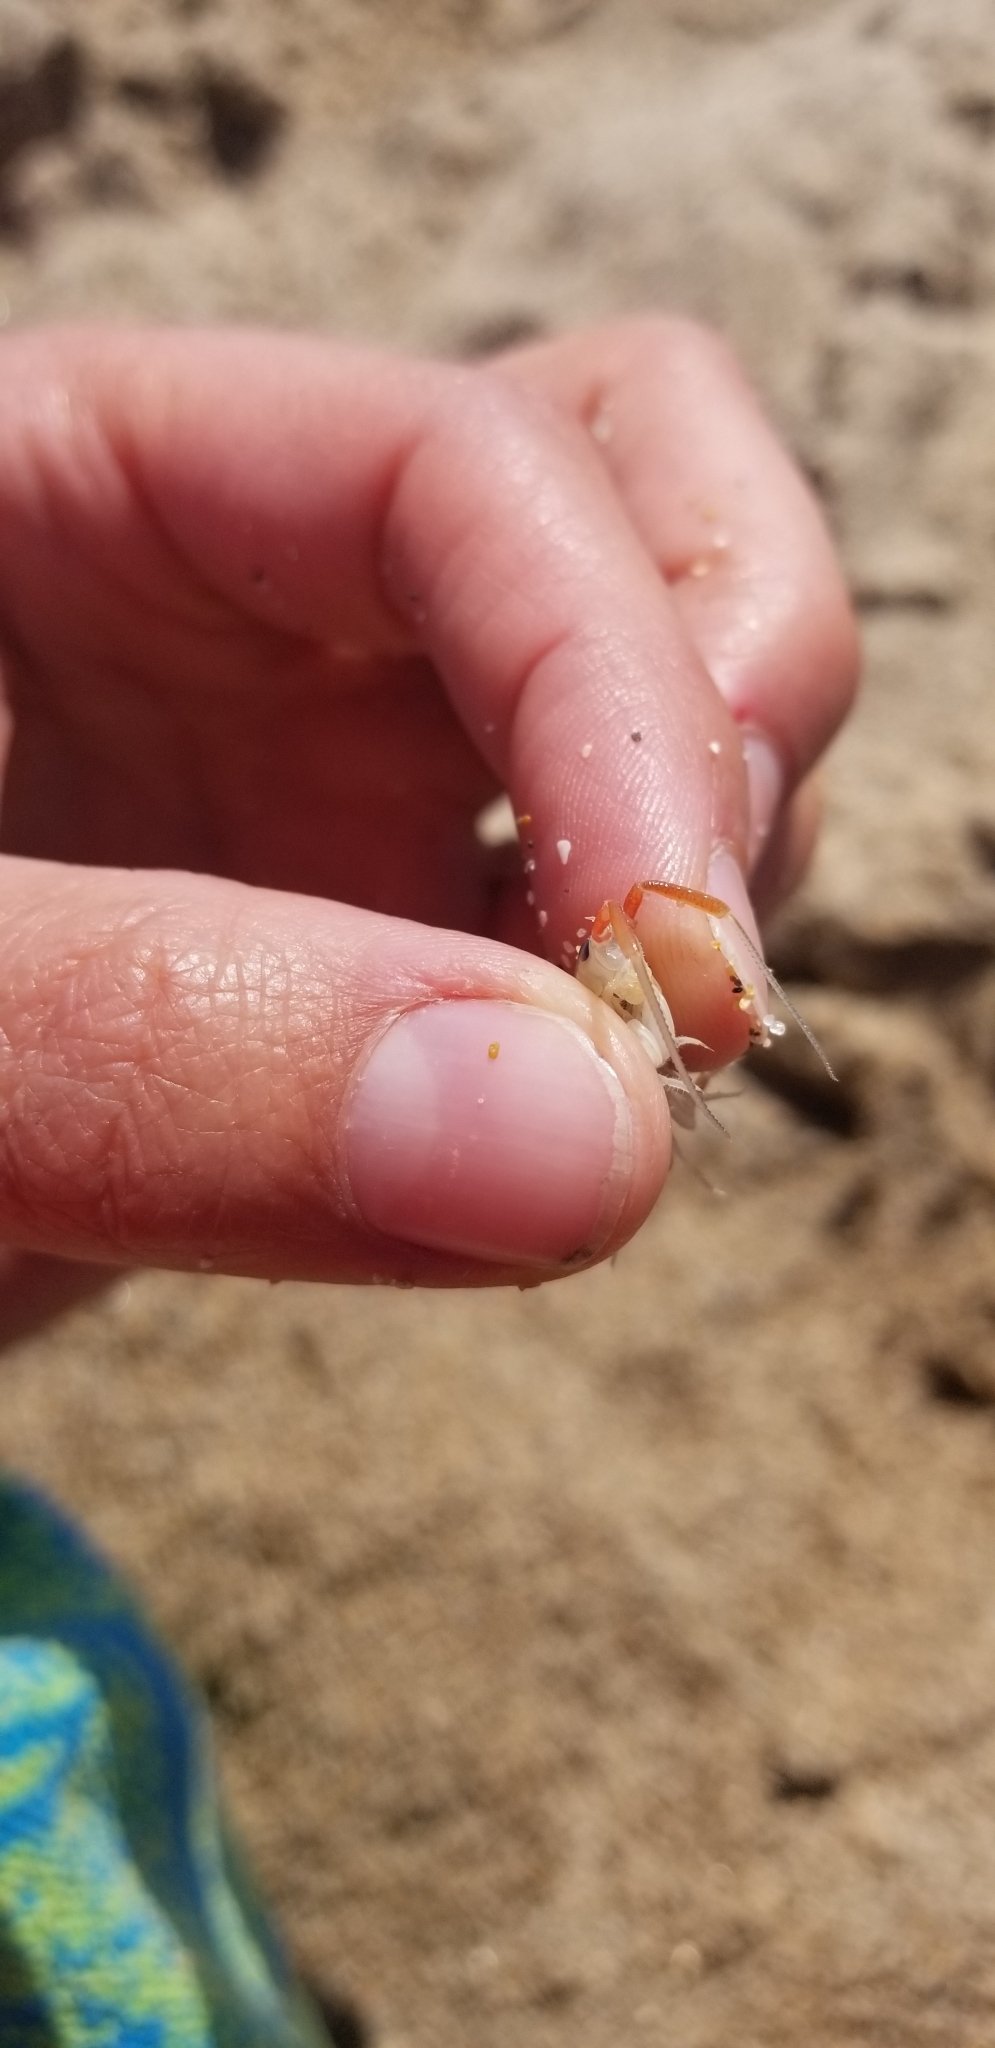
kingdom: Animalia
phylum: Arthropoda
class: Malacostraca
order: Amphipoda
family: Talitridae
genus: Megalorchestia
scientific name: Megalorchestia californiana
